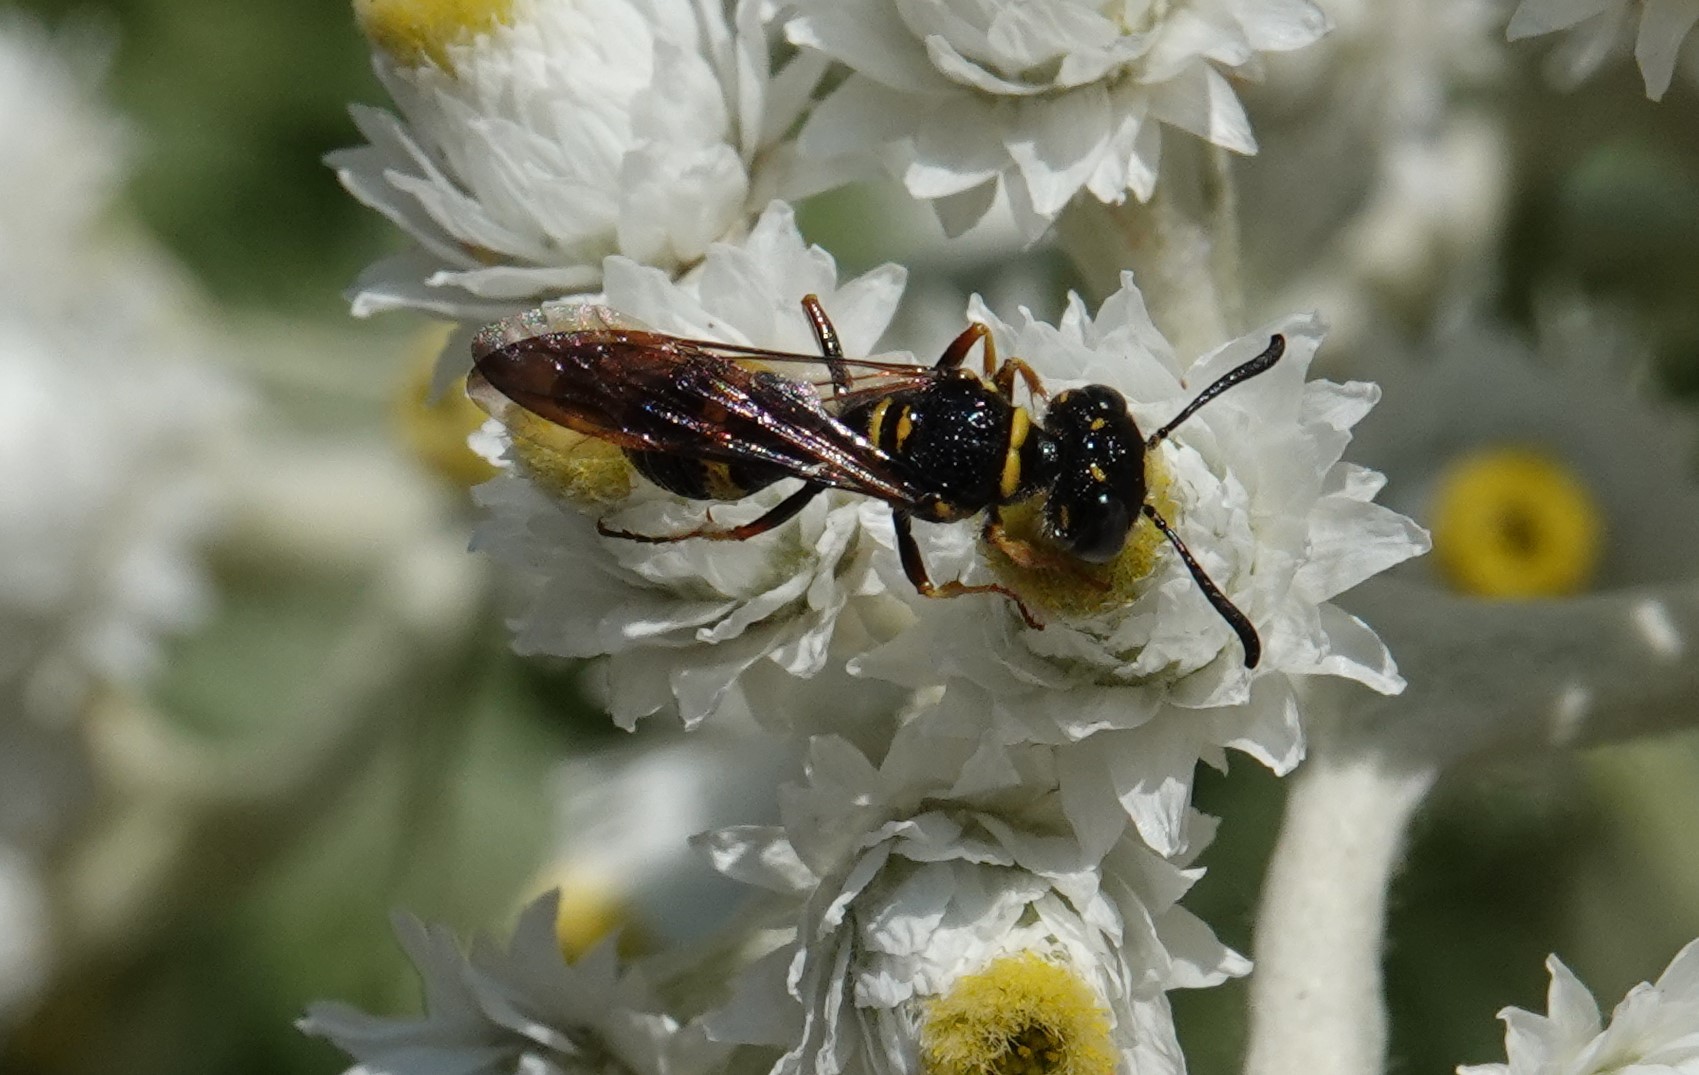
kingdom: Animalia
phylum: Arthropoda
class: Insecta
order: Hymenoptera
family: Crabronidae
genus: Philanthus
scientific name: Philanthus gibbosus
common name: Humped beewolf
